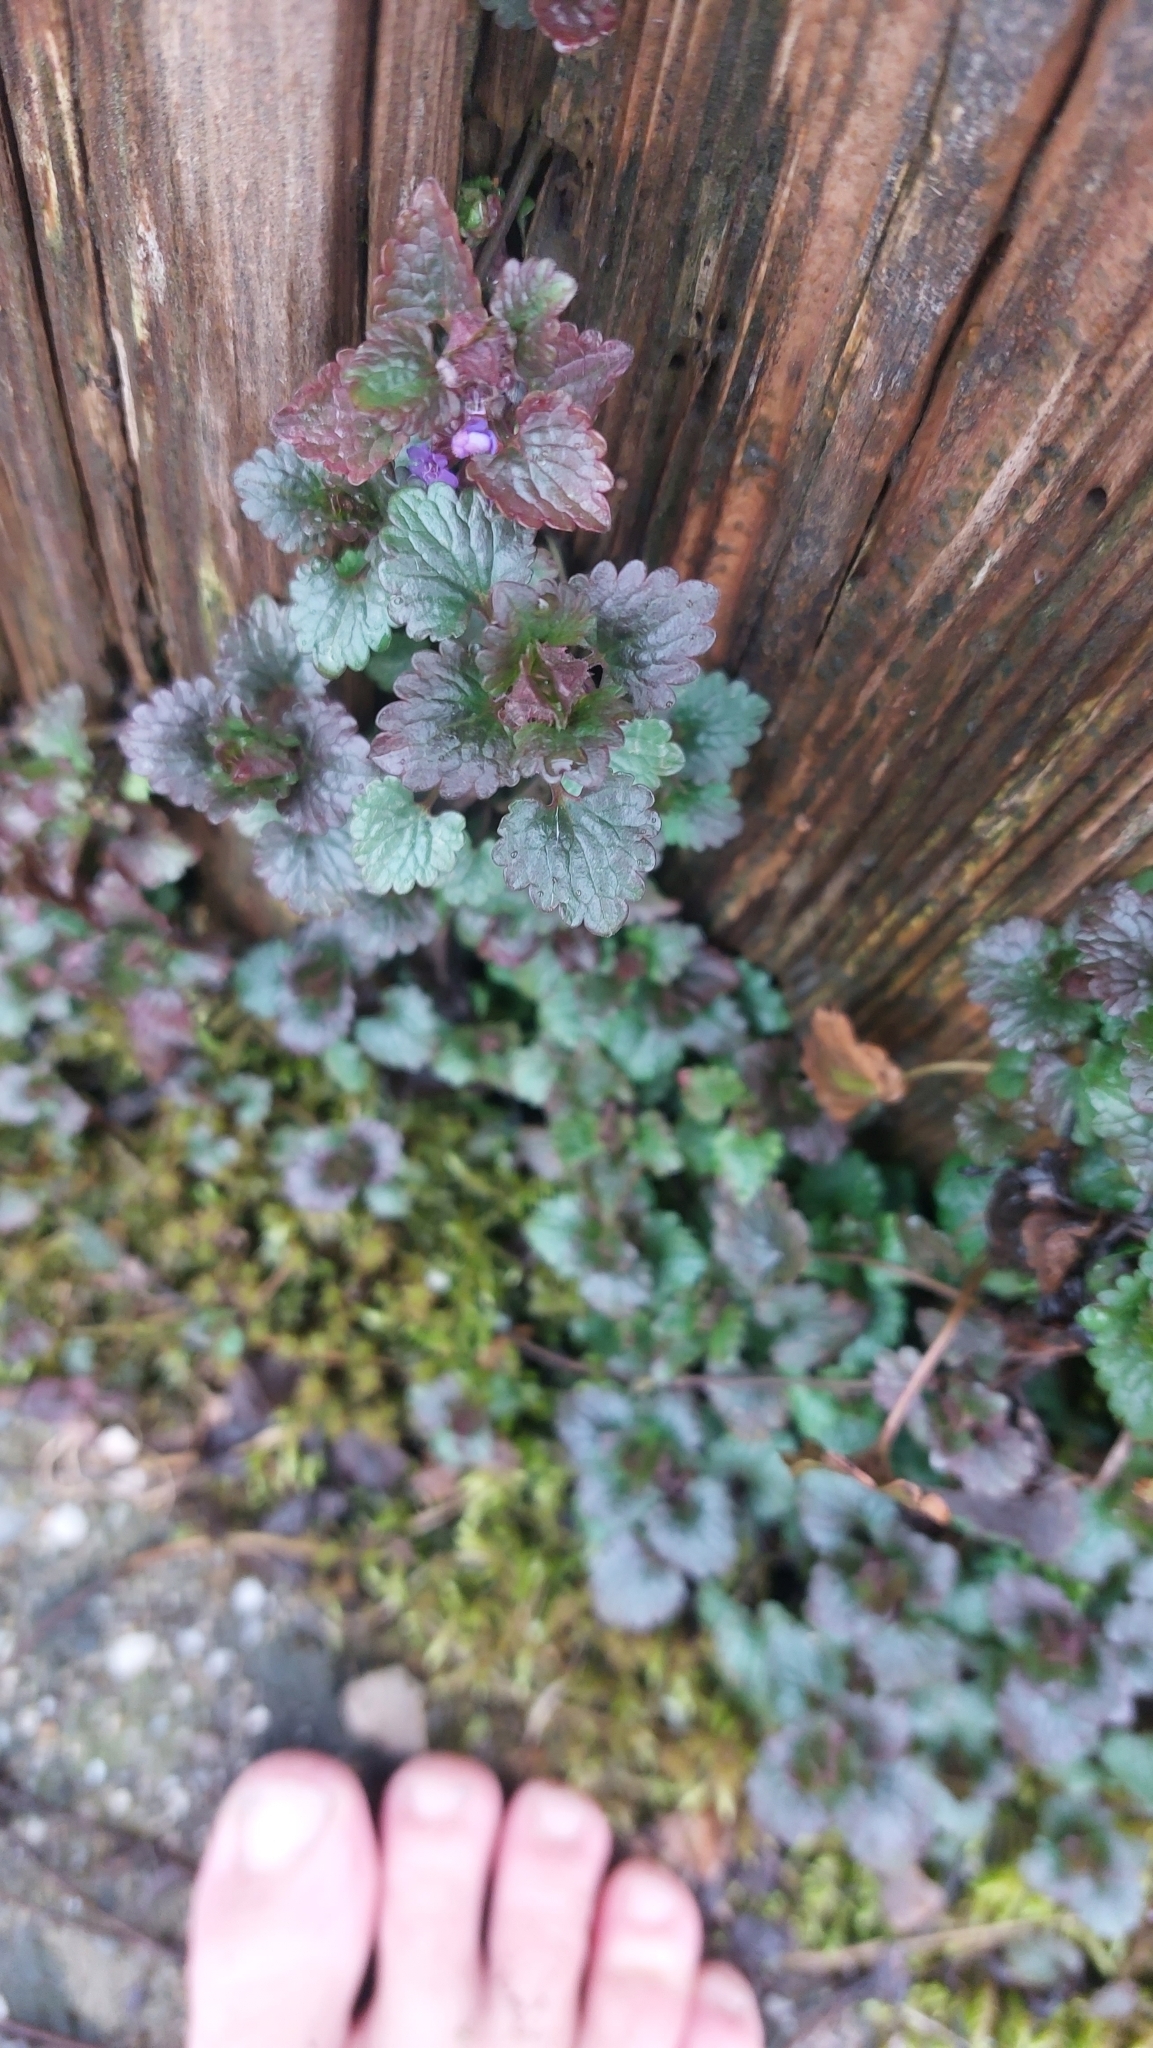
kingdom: Plantae
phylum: Tracheophyta
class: Magnoliopsida
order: Lamiales
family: Lamiaceae
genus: Glechoma
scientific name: Glechoma hederacea
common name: Ground ivy
